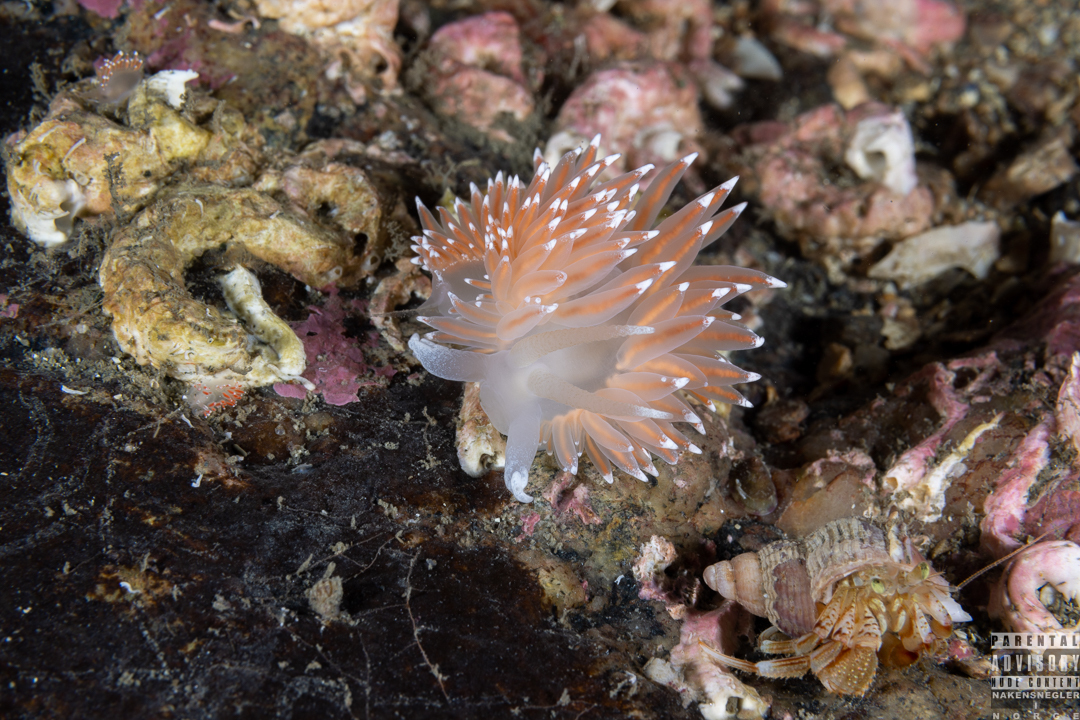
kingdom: Animalia
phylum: Mollusca
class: Gastropoda
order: Nudibranchia
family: Coryphellidae
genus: Coryphella
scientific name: Coryphella nobilis
